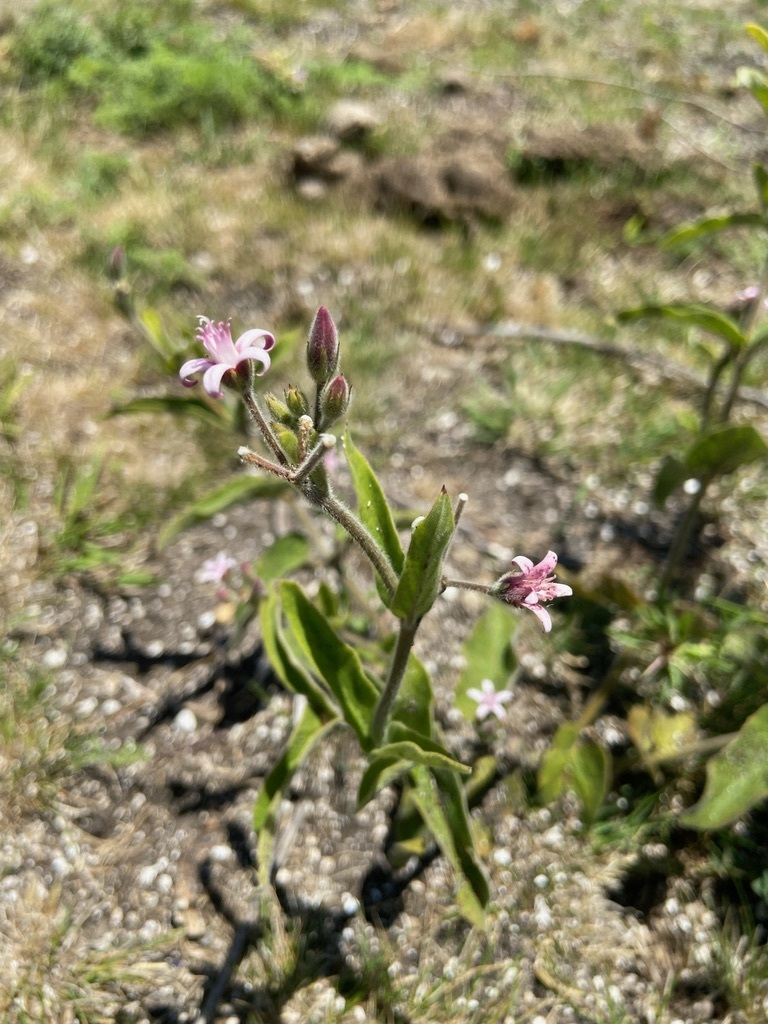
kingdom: Plantae
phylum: Tracheophyta
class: Magnoliopsida
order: Gentianales
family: Apocynaceae
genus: Oxypetalum
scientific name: Oxypetalum solanoides
